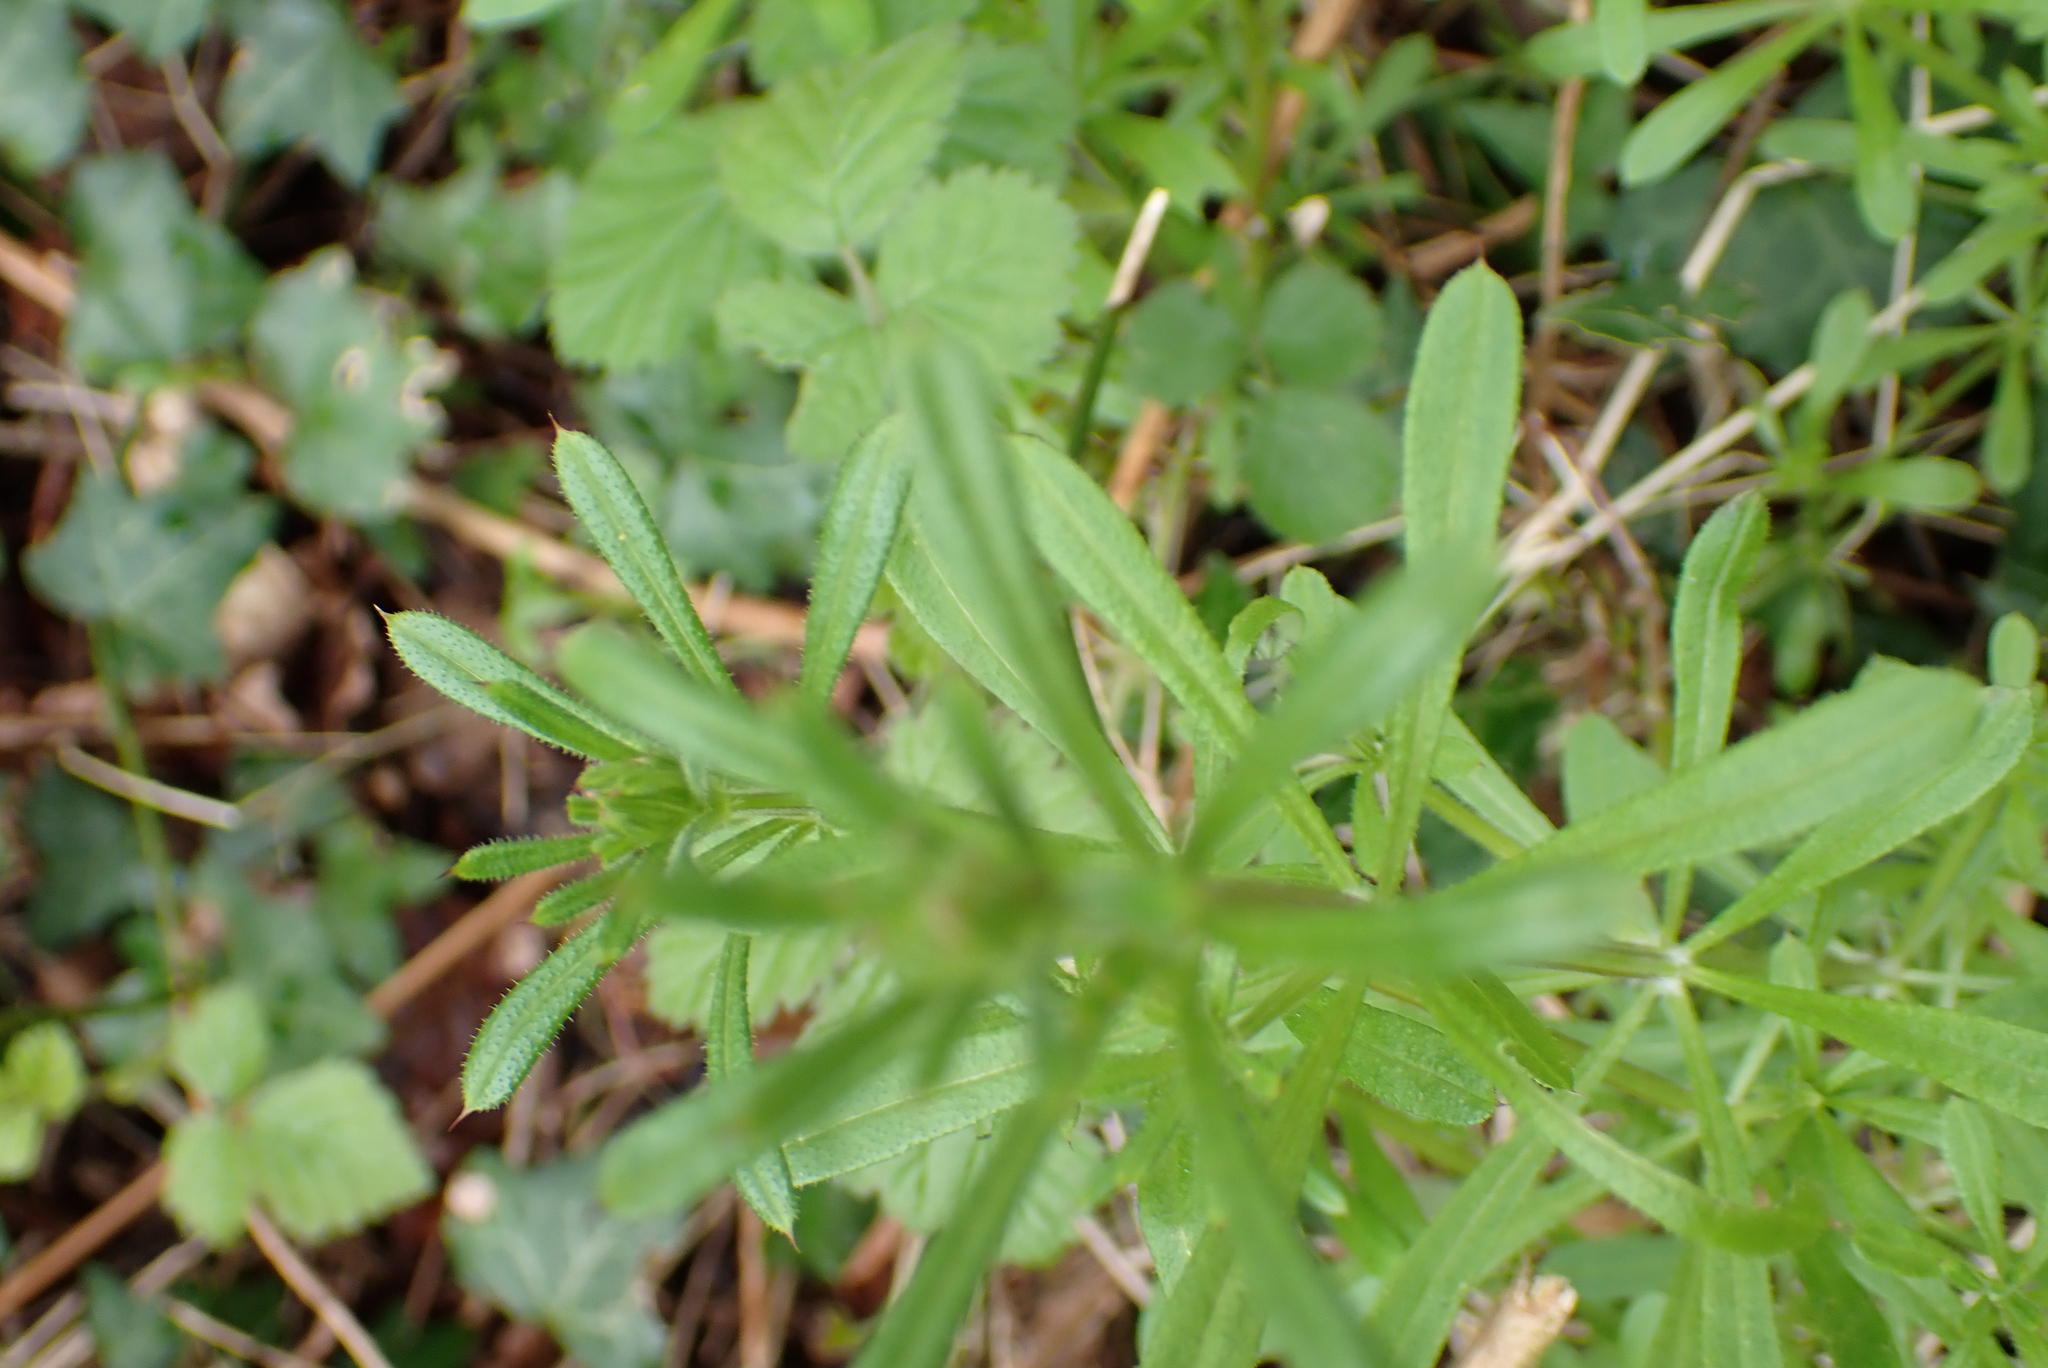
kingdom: Plantae
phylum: Tracheophyta
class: Magnoliopsida
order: Gentianales
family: Rubiaceae
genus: Galium
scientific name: Galium aparine
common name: Cleavers
